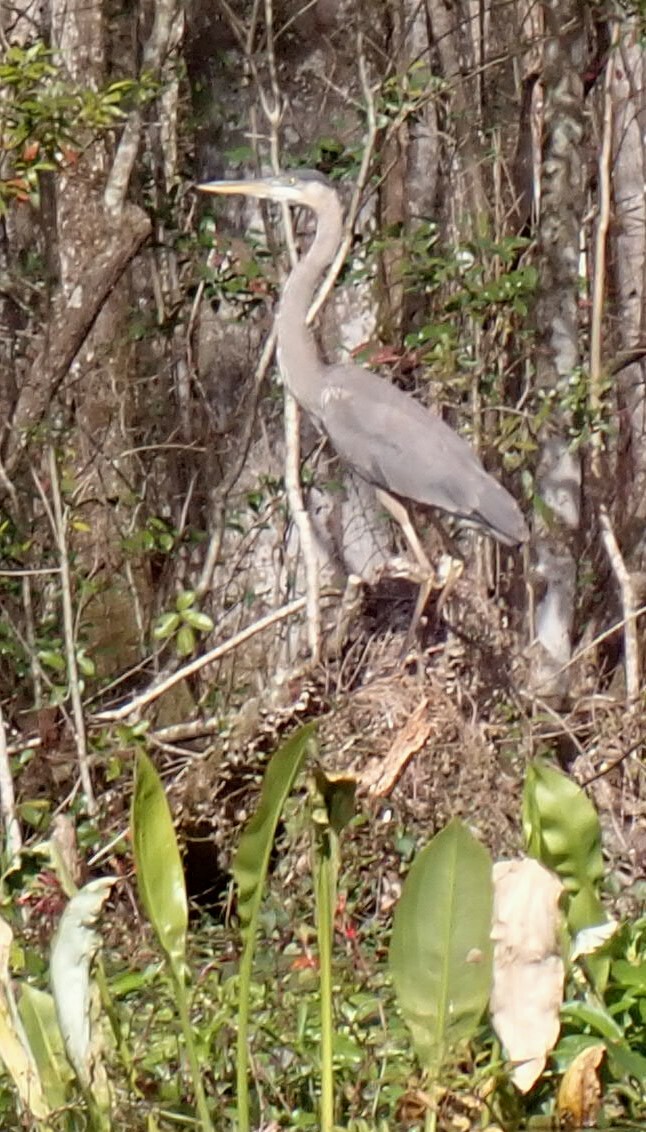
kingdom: Animalia
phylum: Chordata
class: Aves
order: Pelecaniformes
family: Ardeidae
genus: Ardea
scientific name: Ardea herodias
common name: Great blue heron
